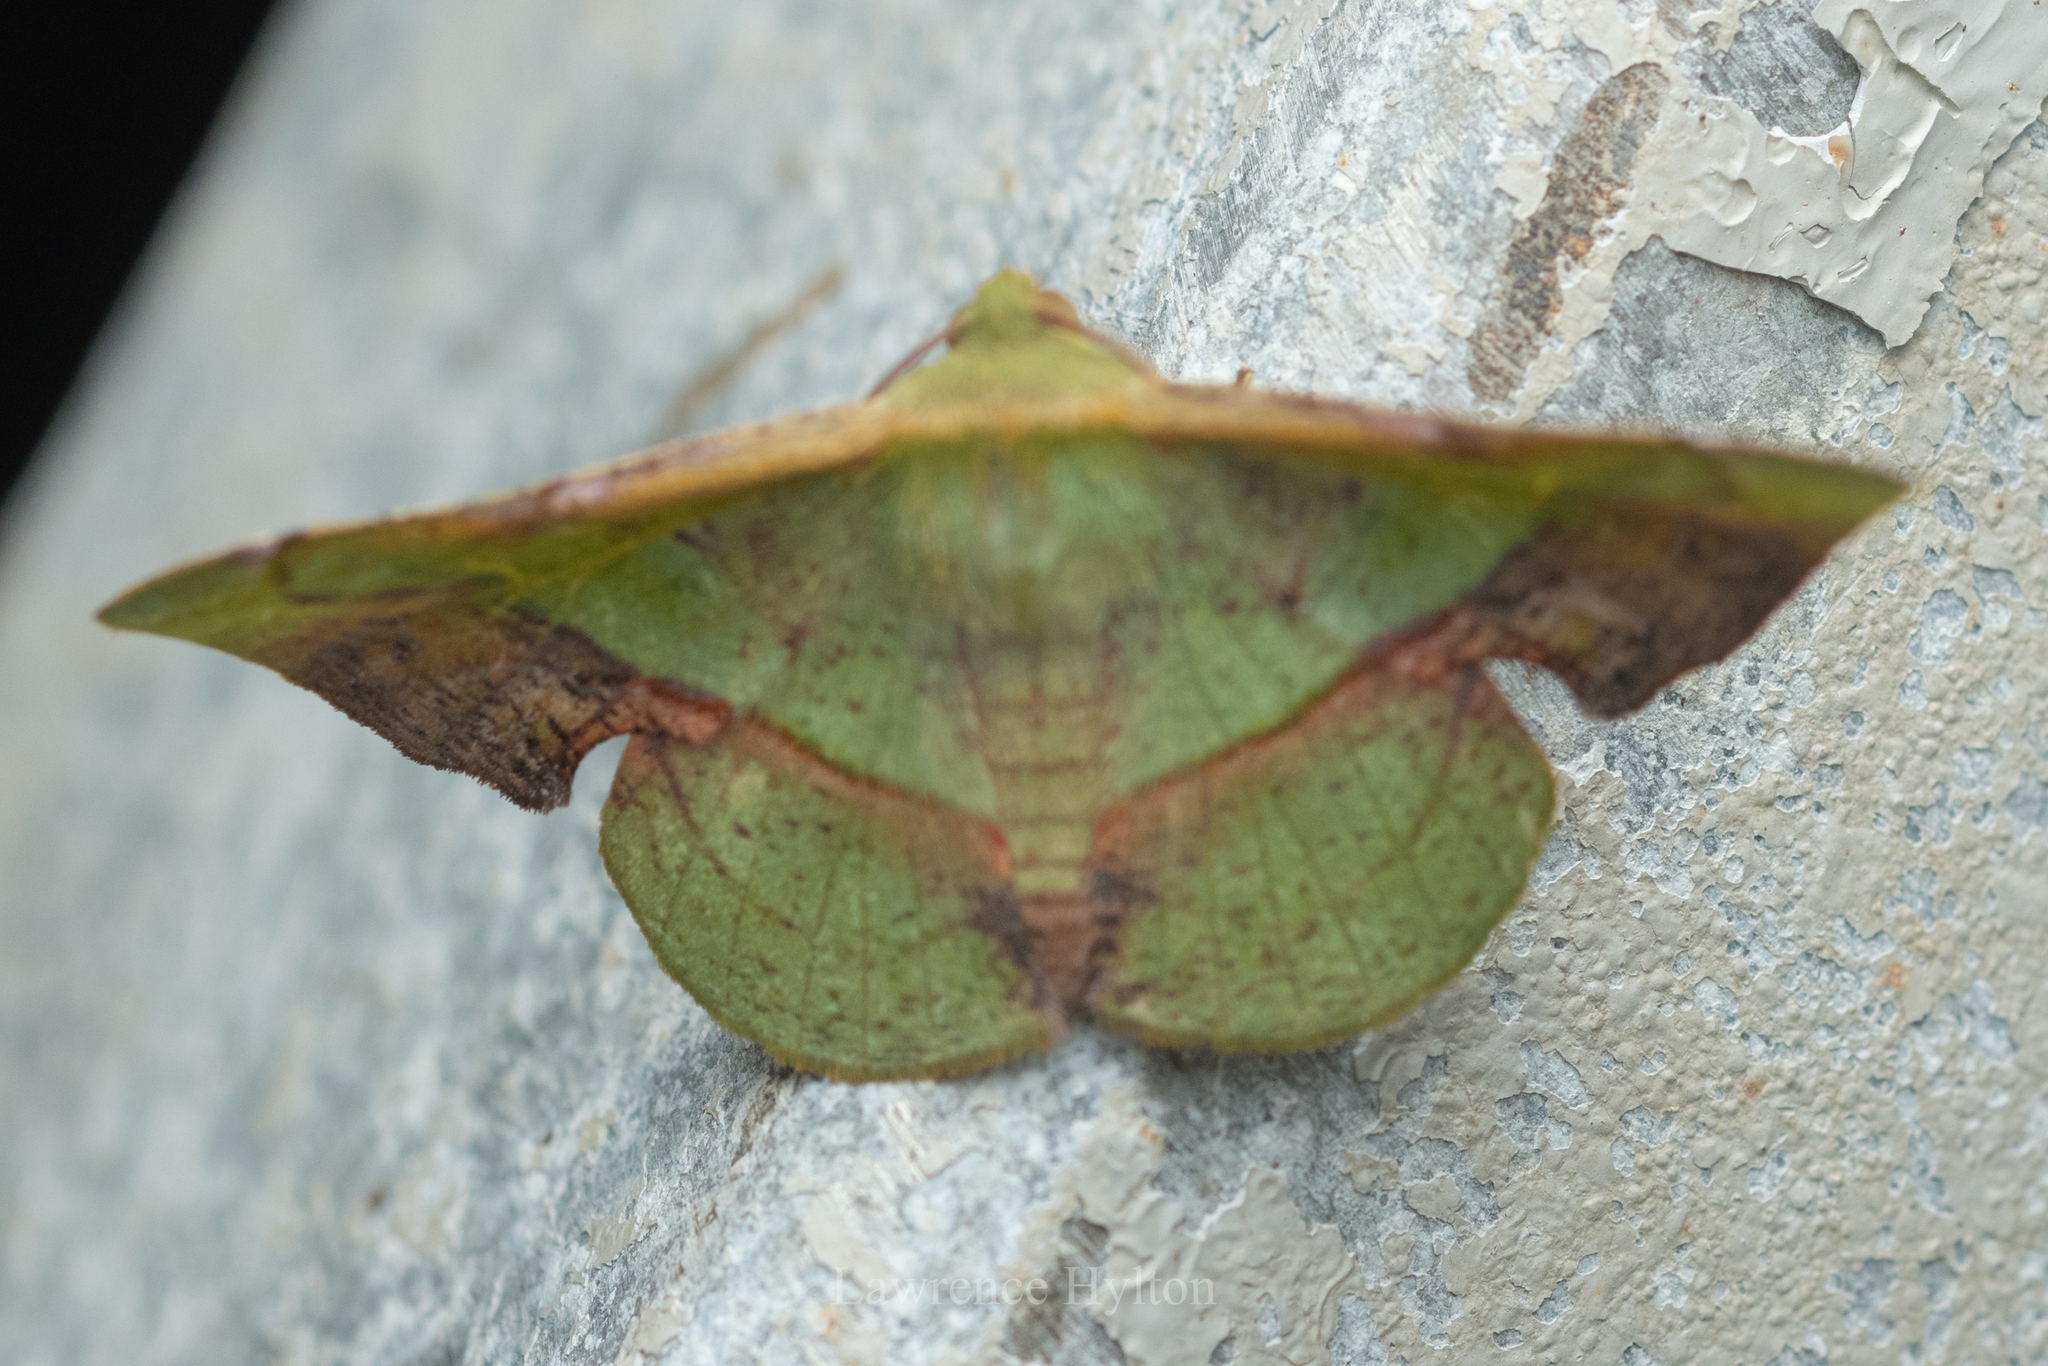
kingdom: Animalia
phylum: Arthropoda
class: Insecta
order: Lepidoptera
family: Geometridae
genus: Fascellina
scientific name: Fascellina plagiata
